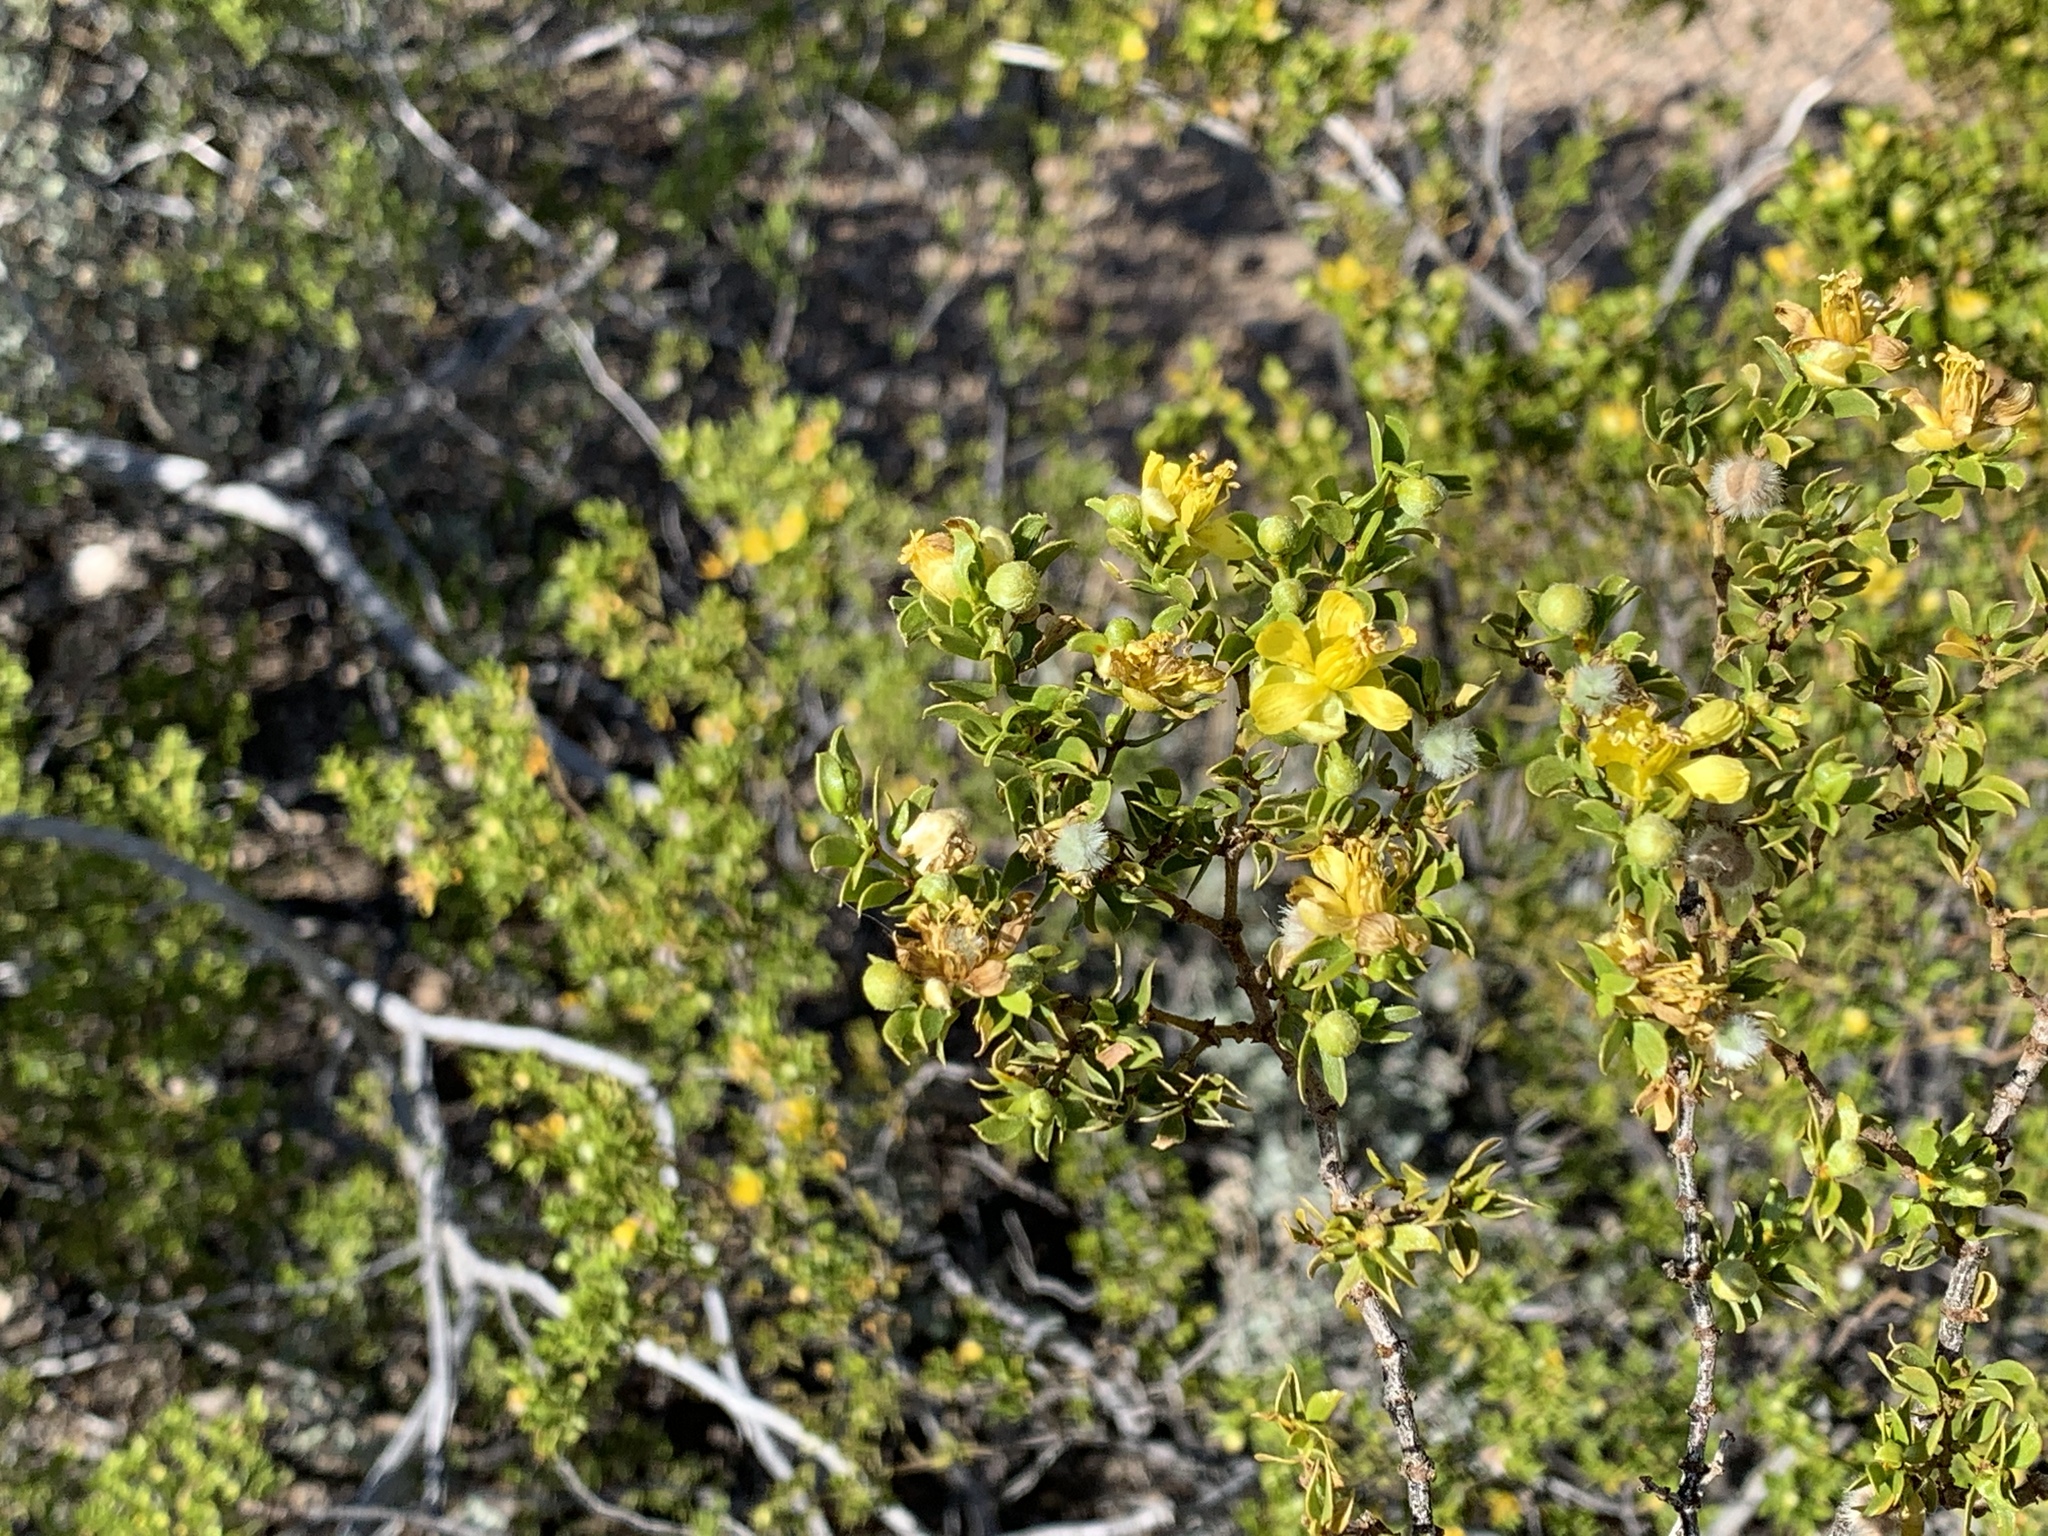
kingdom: Plantae
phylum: Tracheophyta
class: Magnoliopsida
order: Zygophyllales
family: Zygophyllaceae
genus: Larrea
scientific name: Larrea tridentata
